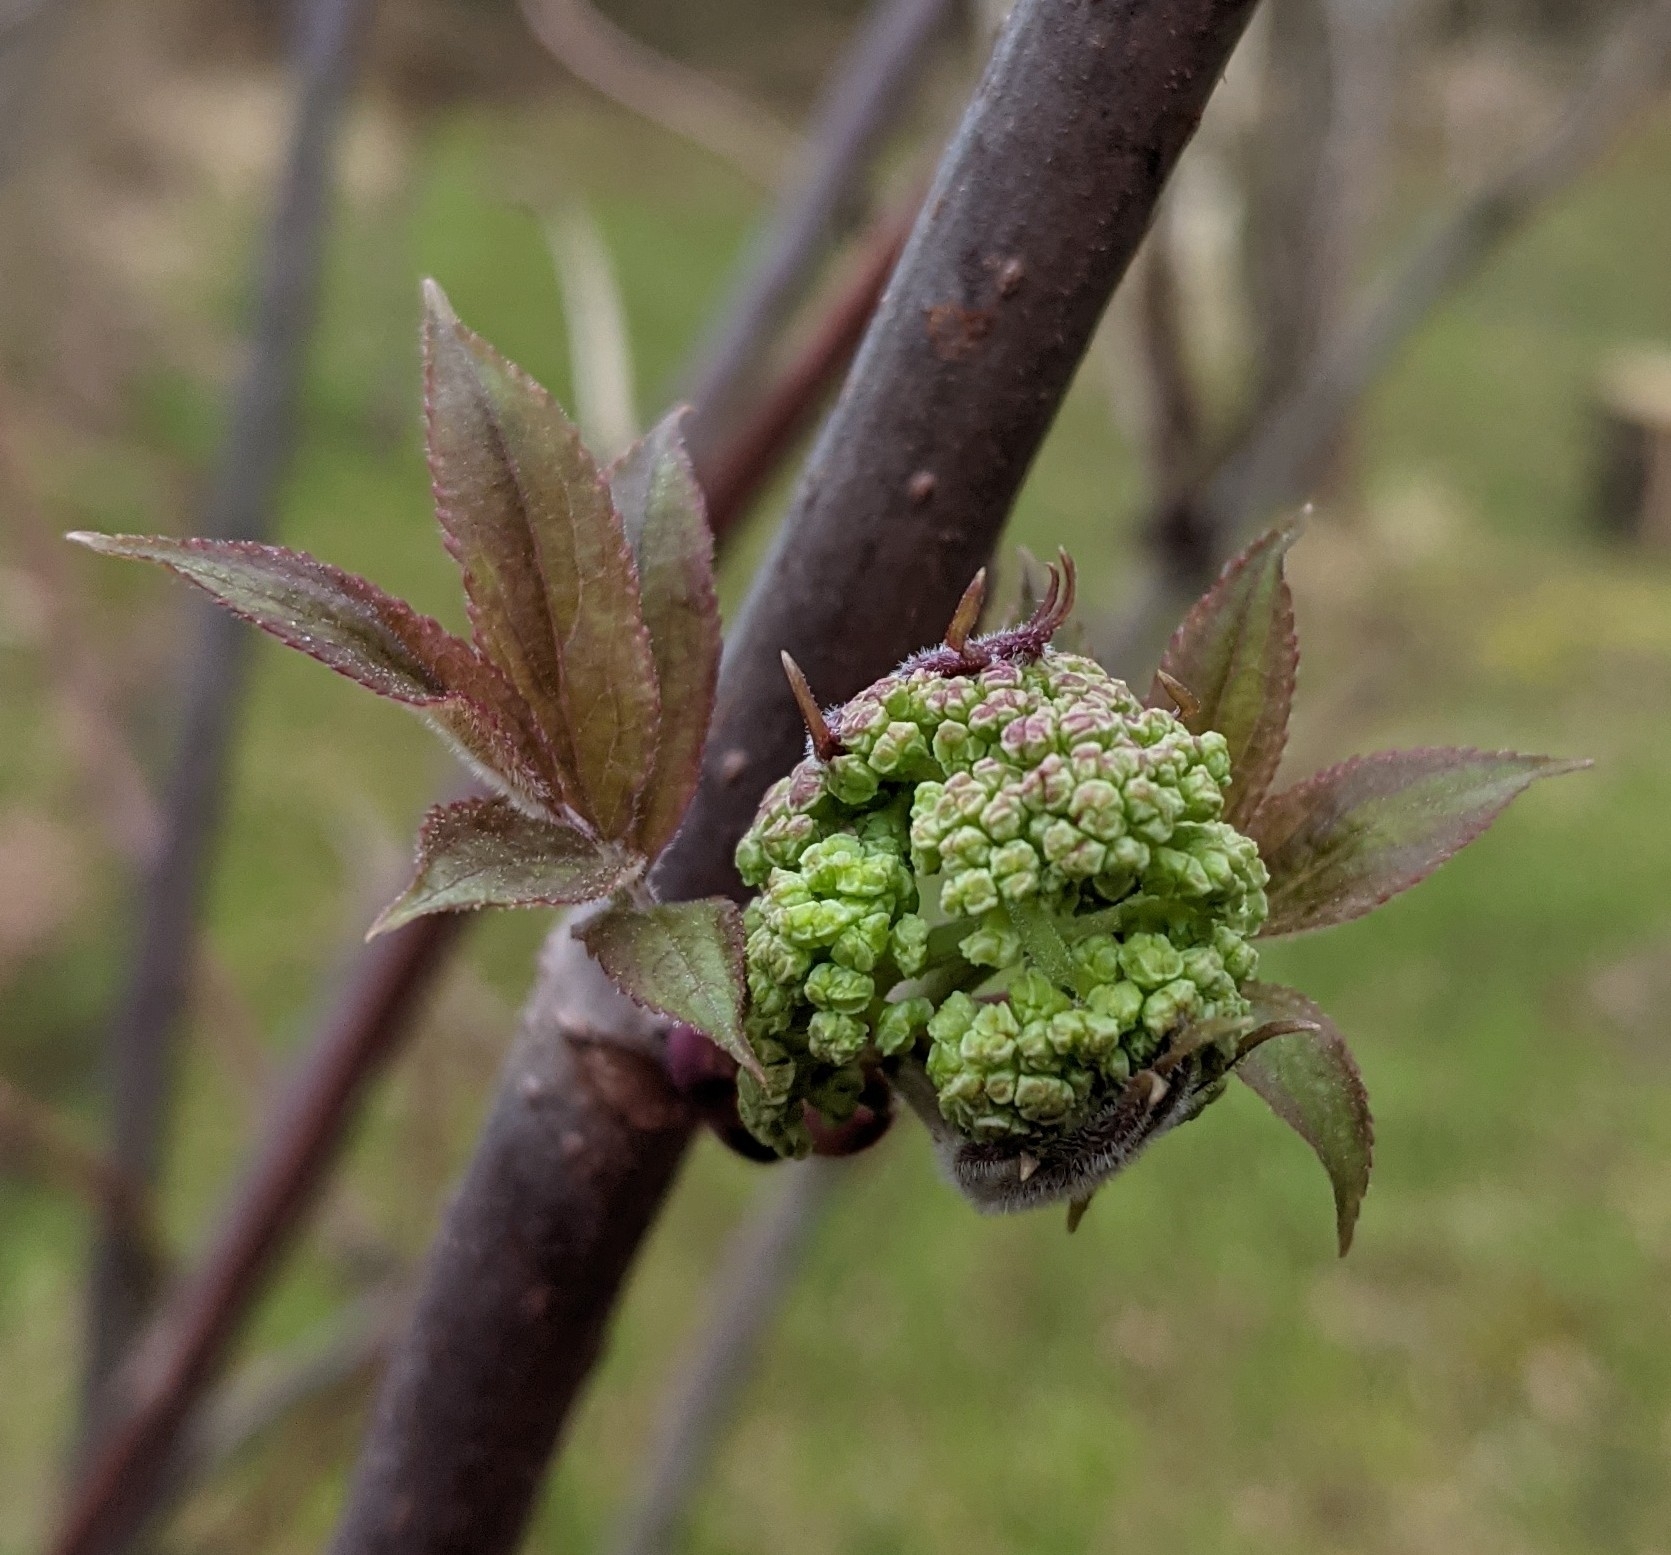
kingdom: Plantae
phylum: Tracheophyta
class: Magnoliopsida
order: Dipsacales
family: Viburnaceae
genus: Sambucus
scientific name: Sambucus racemosa
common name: Red-berried elder
